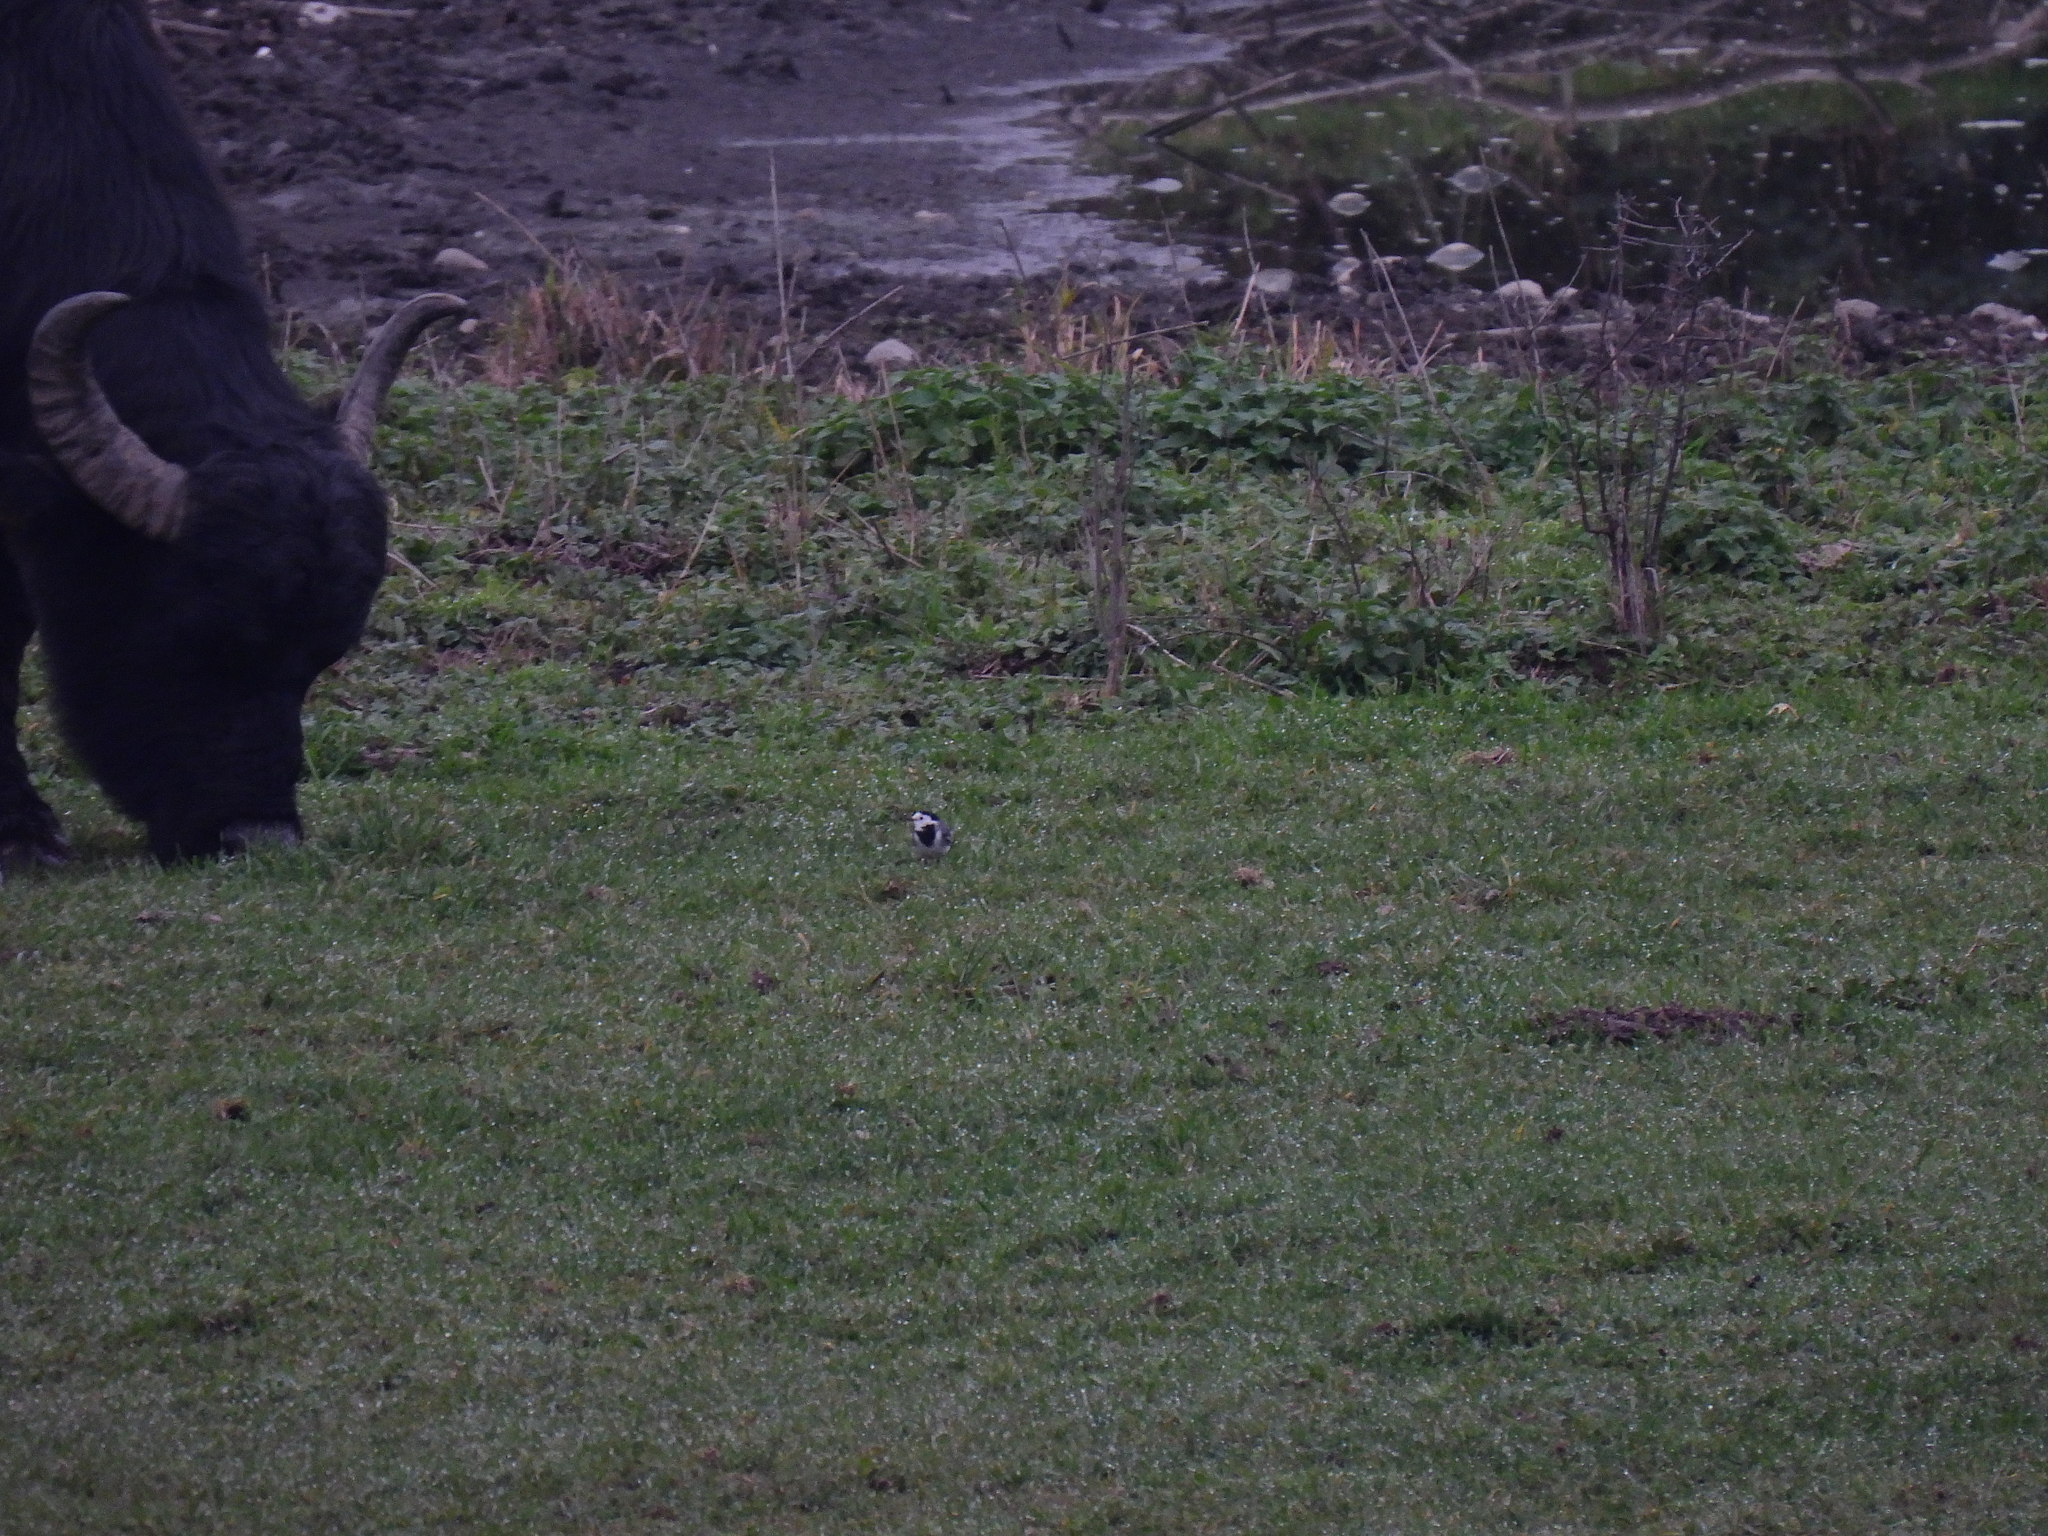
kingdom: Animalia
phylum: Chordata
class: Aves
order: Passeriformes
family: Motacillidae
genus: Motacilla
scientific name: Motacilla alba
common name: White wagtail
